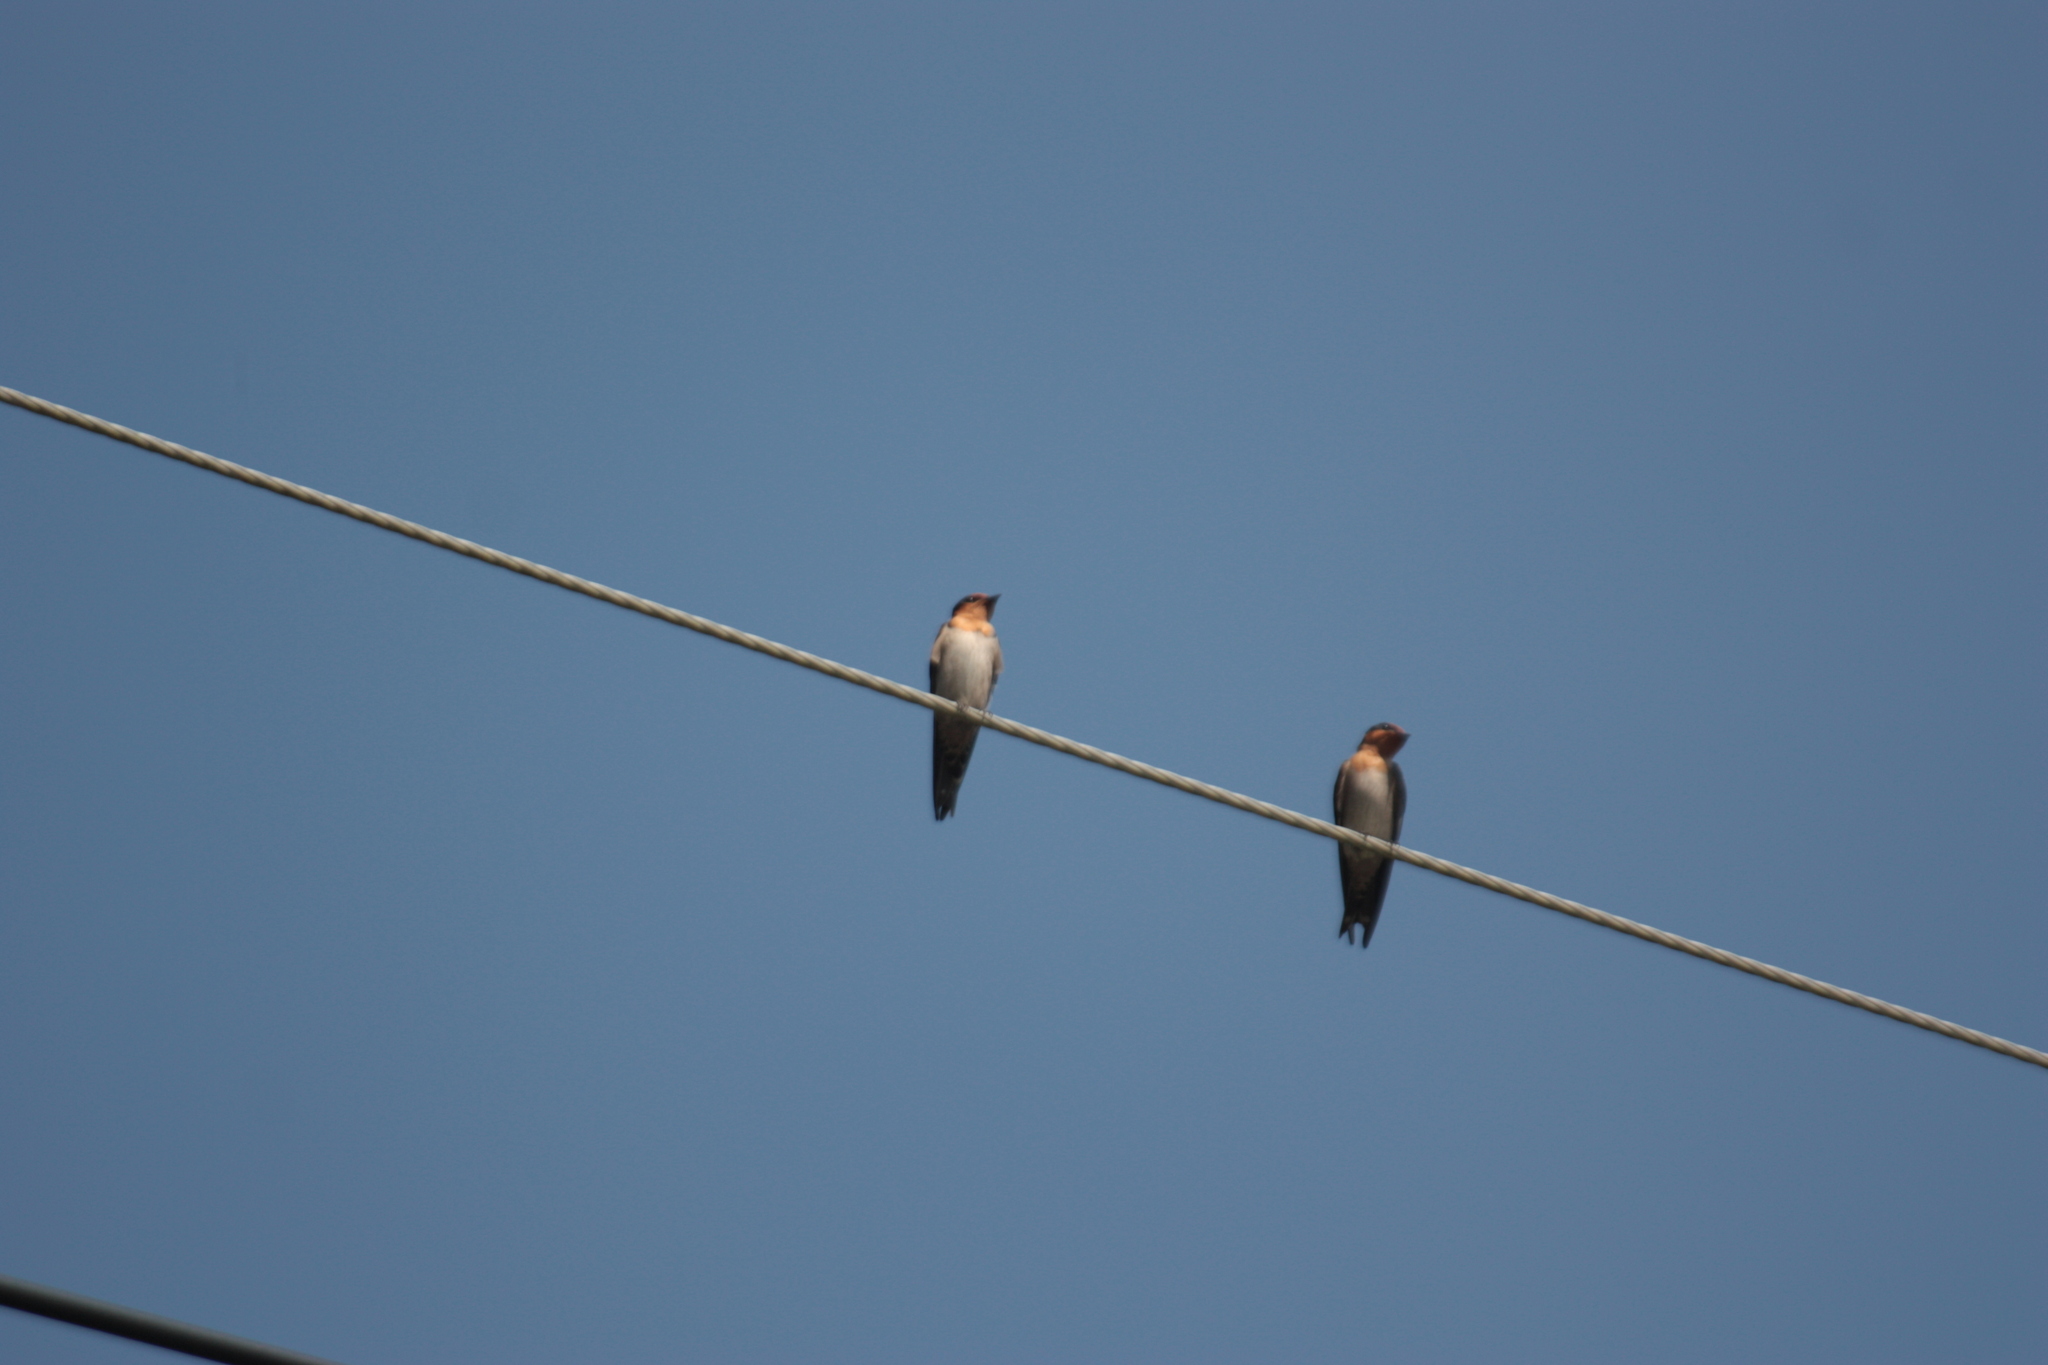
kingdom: Animalia
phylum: Chordata
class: Aves
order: Passeriformes
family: Hirundinidae
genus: Hirundo
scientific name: Hirundo tahitica
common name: Pacific swallow
